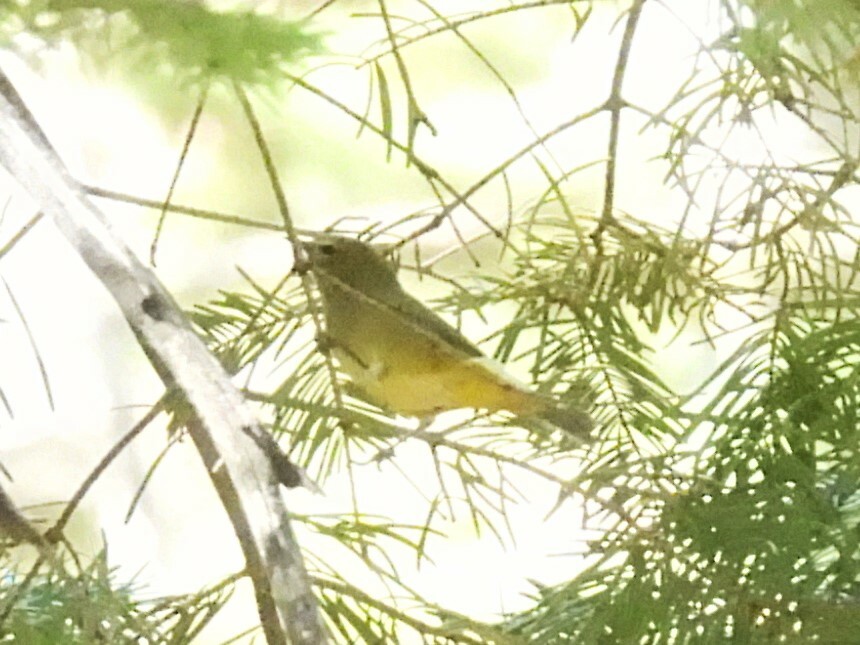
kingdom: Animalia
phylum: Chordata
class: Aves
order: Passeriformes
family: Parulidae
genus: Leiothlypis
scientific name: Leiothlypis celata
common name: Orange-crowned warbler
